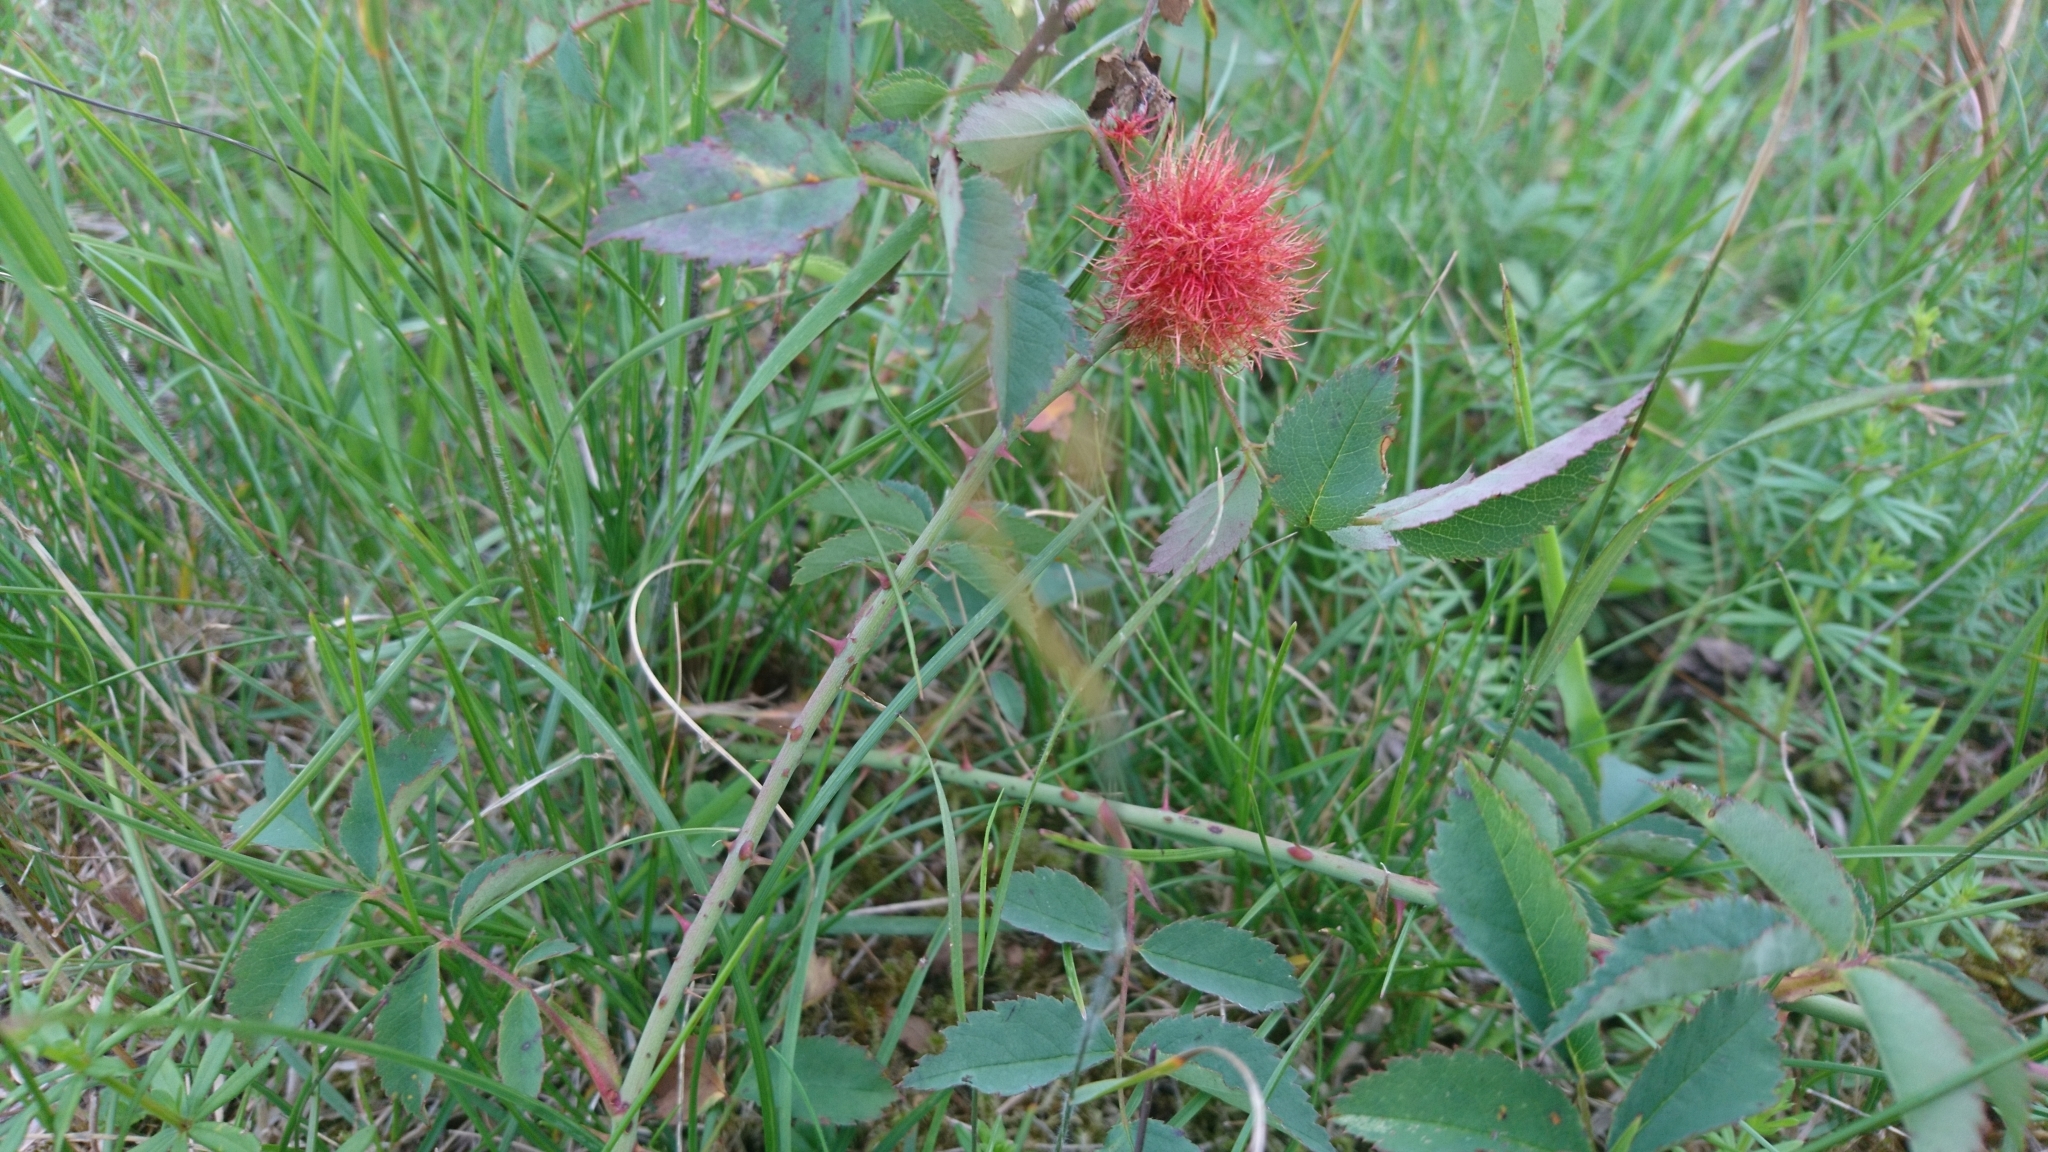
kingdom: Animalia
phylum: Arthropoda
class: Insecta
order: Hymenoptera
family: Cynipidae
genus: Diplolepis
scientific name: Diplolepis rosae
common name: Bedeguar gall
